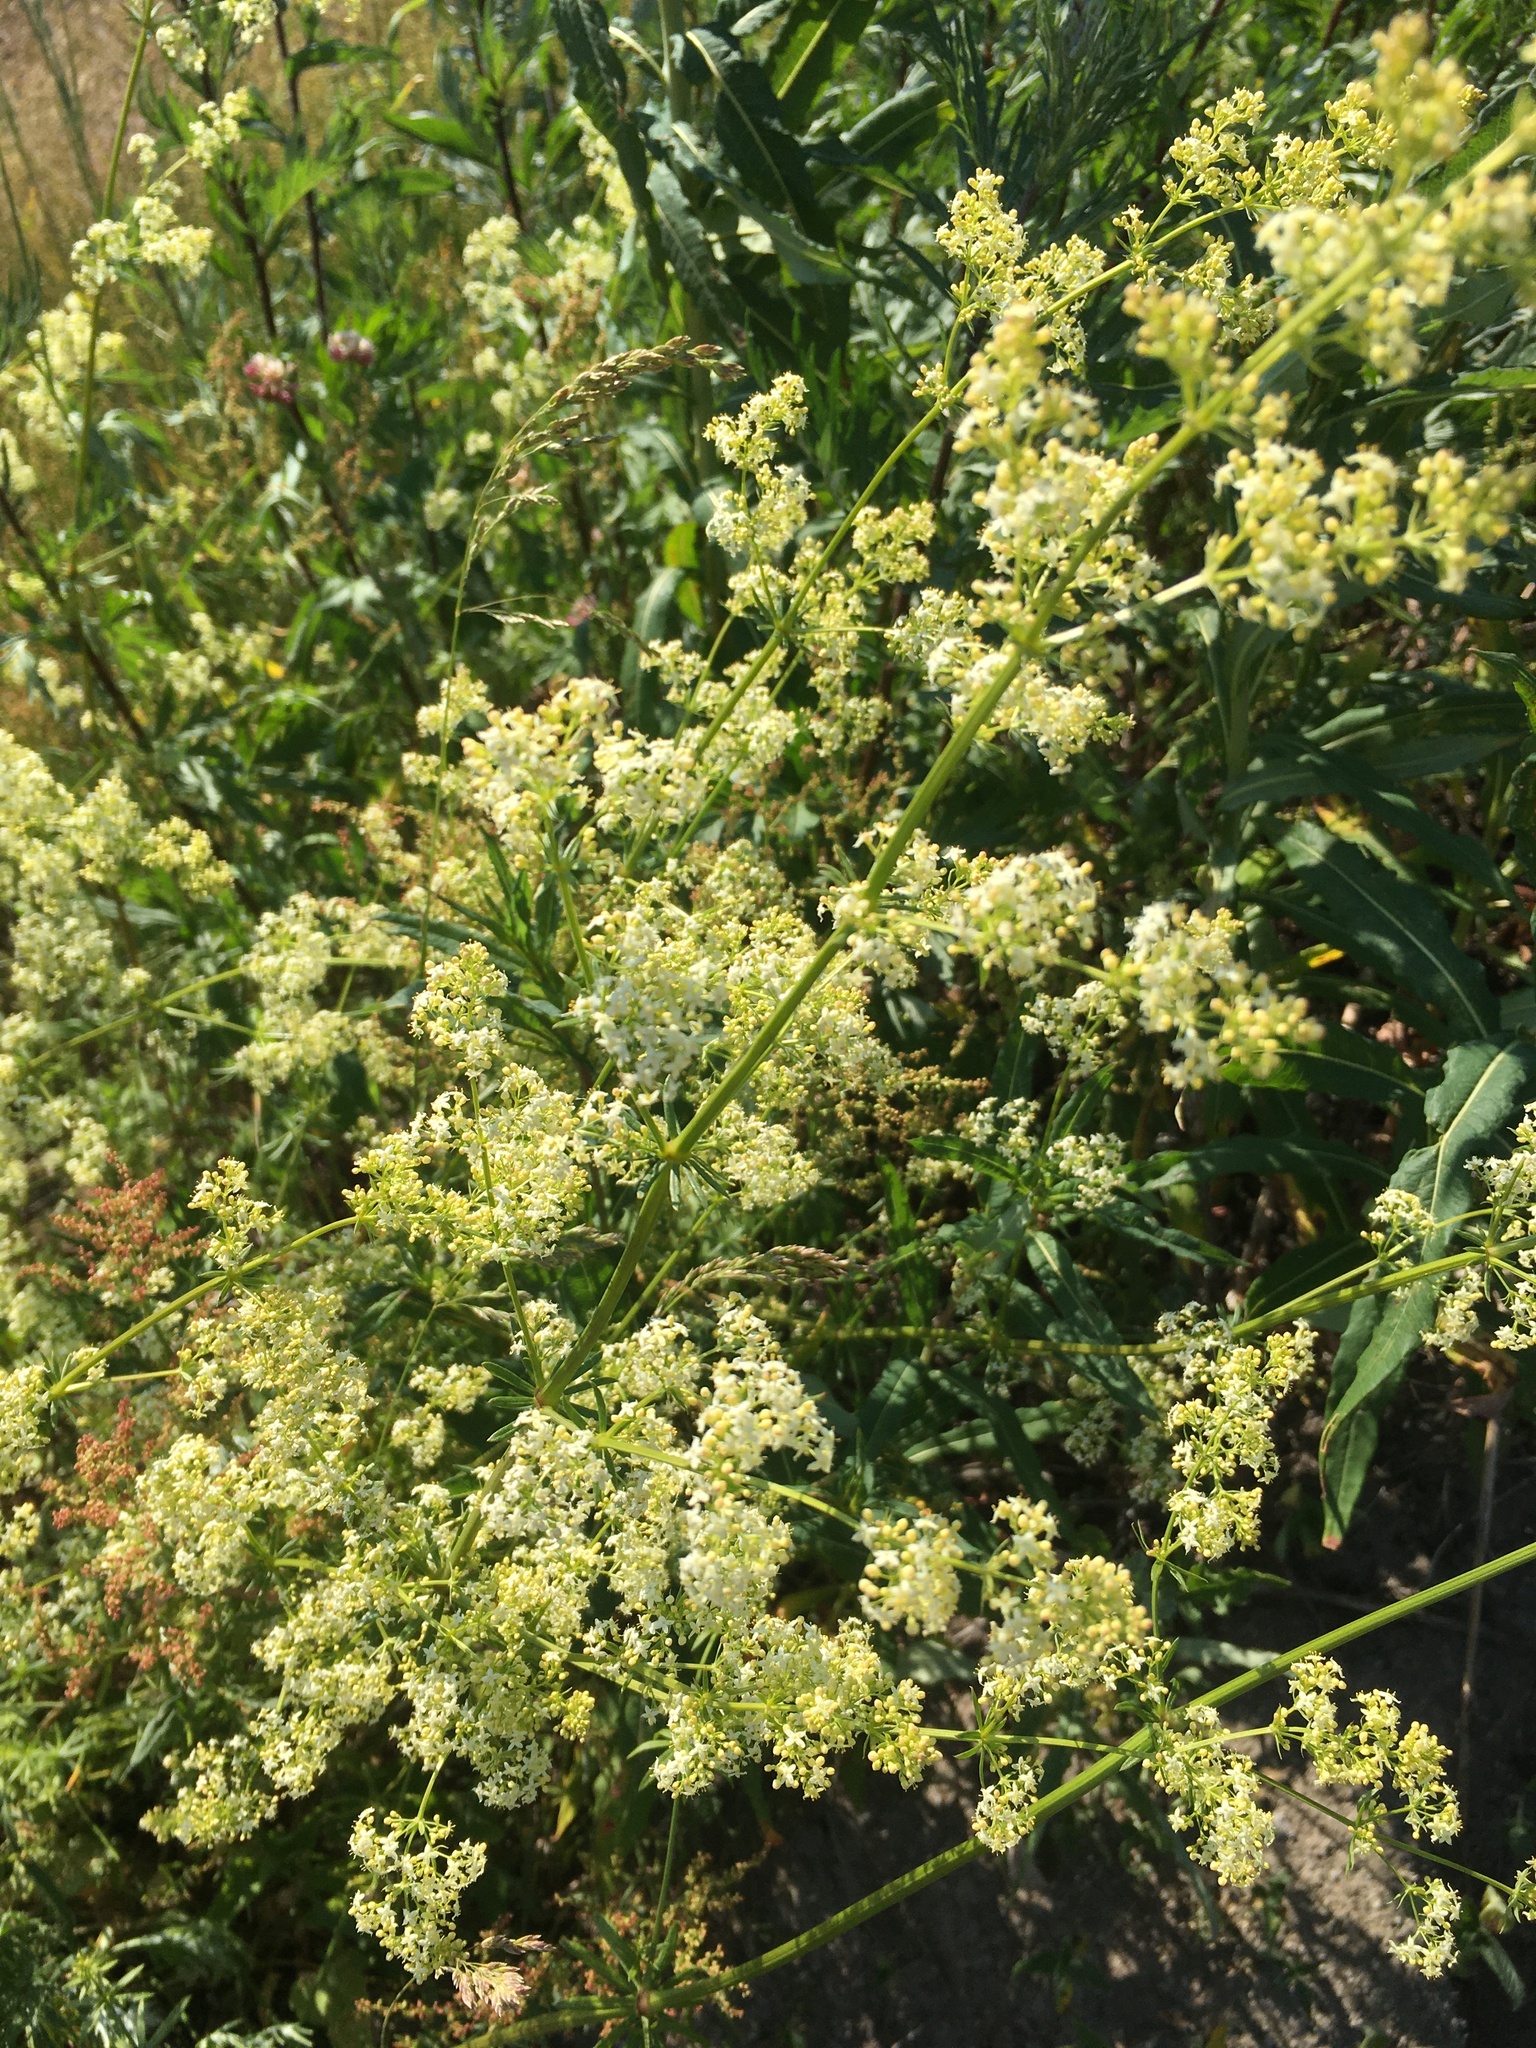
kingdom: Plantae
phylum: Tracheophyta
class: Magnoliopsida
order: Gentianales
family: Rubiaceae
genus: Galium
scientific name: Galium mollugo
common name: Hedge bedstraw
